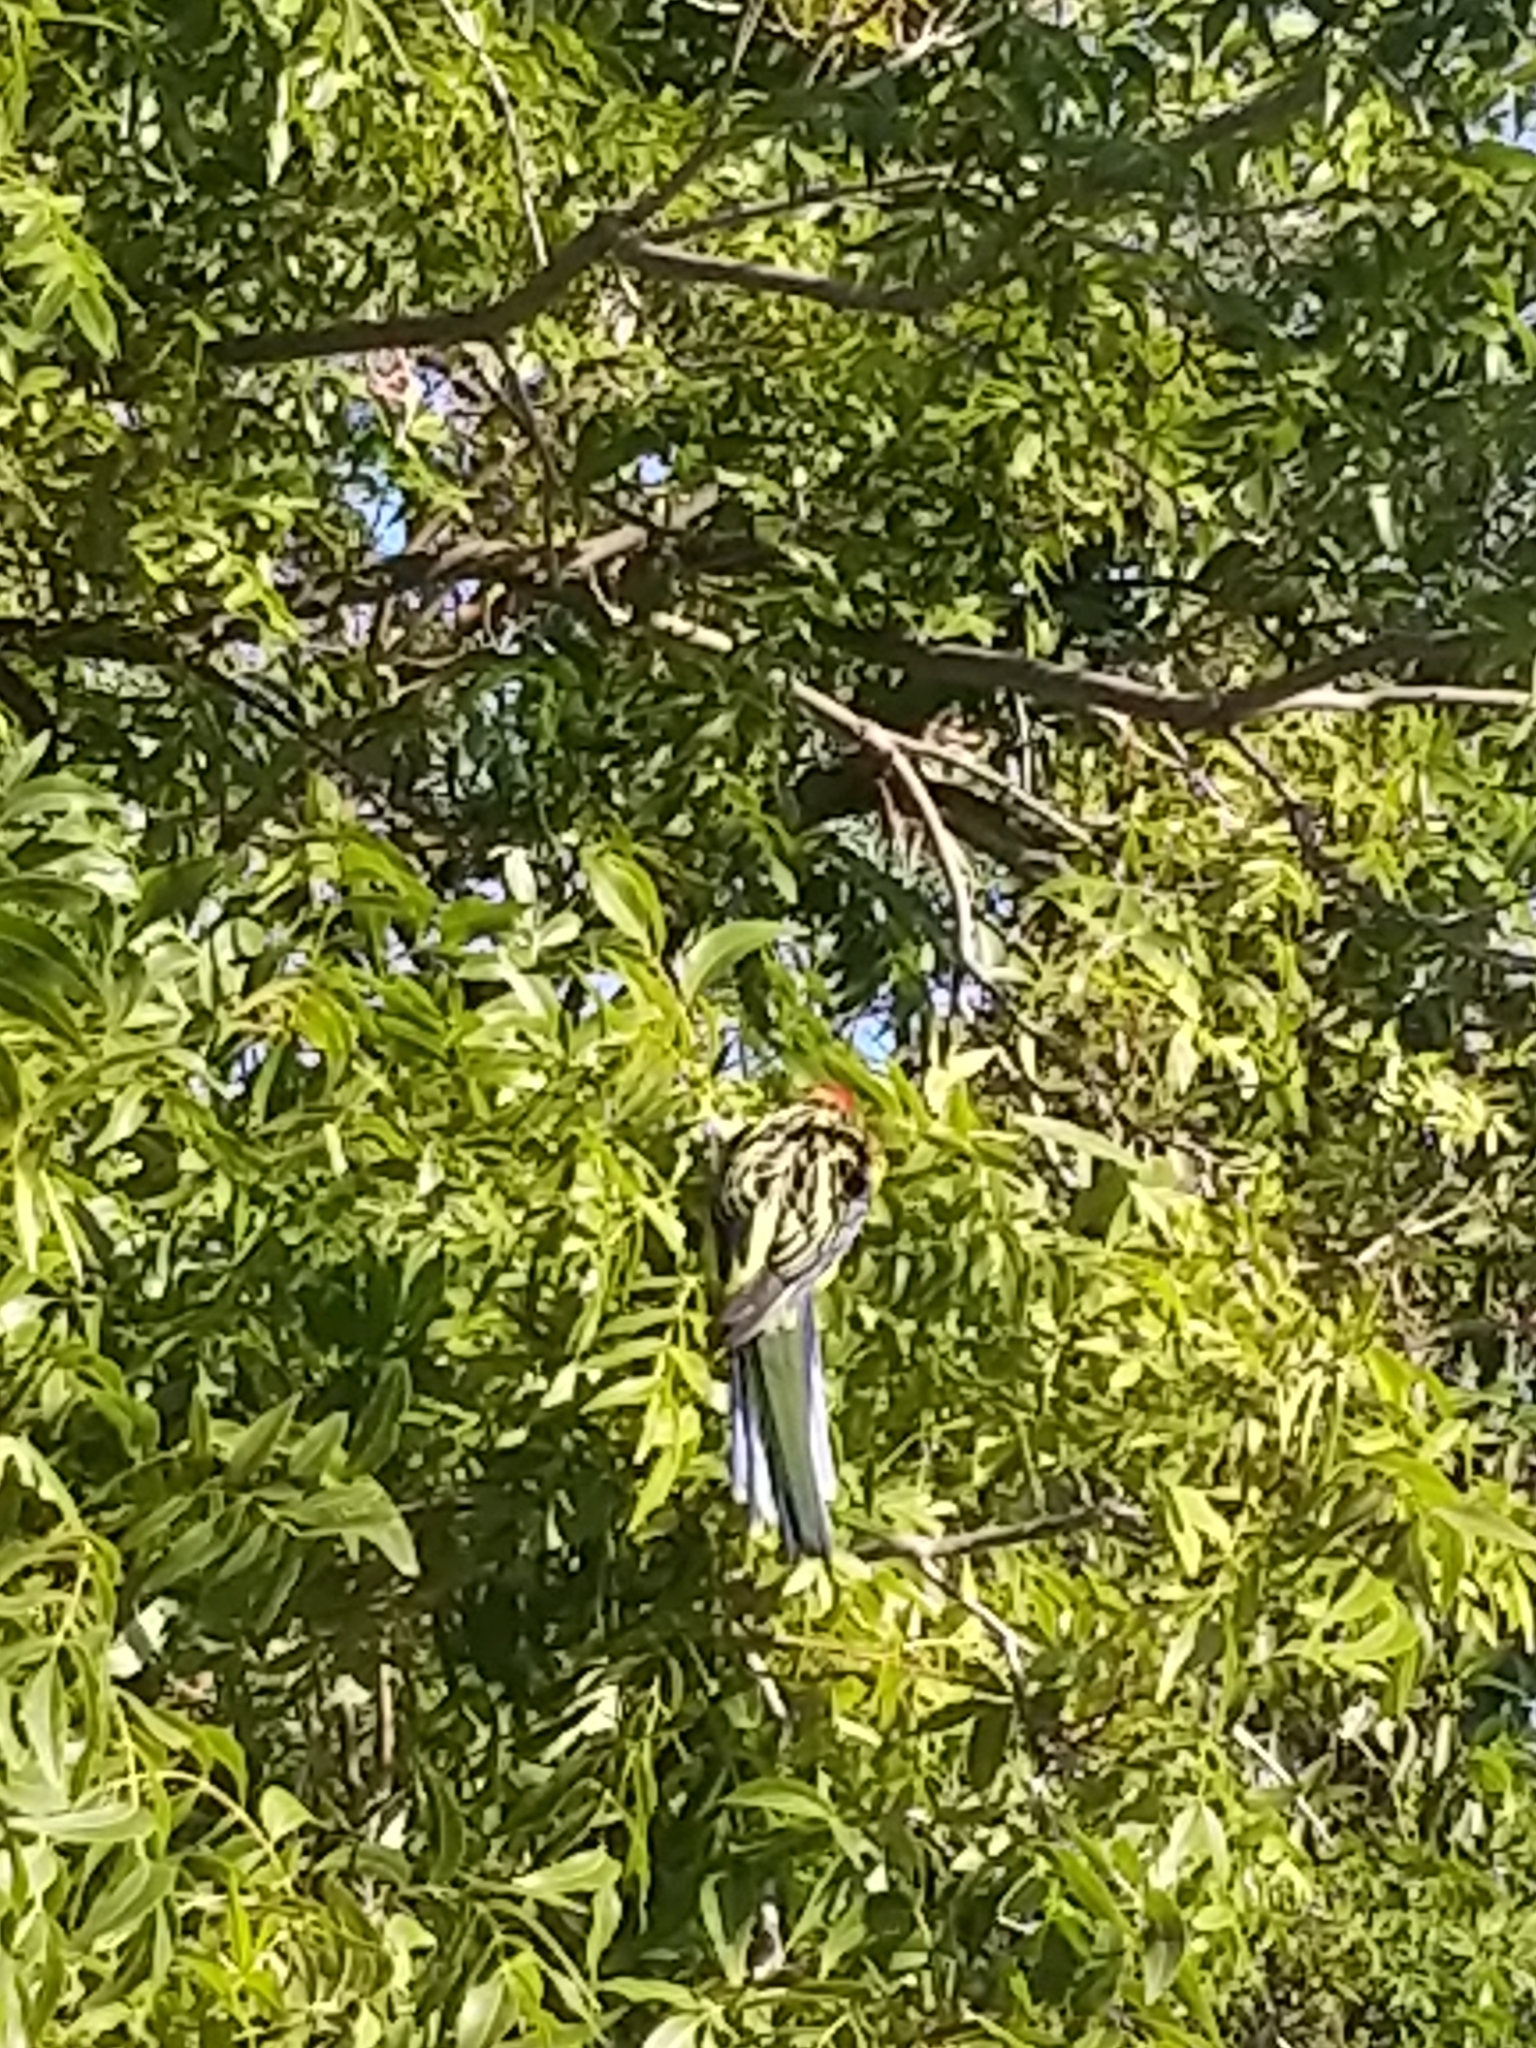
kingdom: Animalia
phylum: Chordata
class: Aves
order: Psittaciformes
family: Psittacidae
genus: Platycercus
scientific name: Platycercus eximius
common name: Eastern rosella
